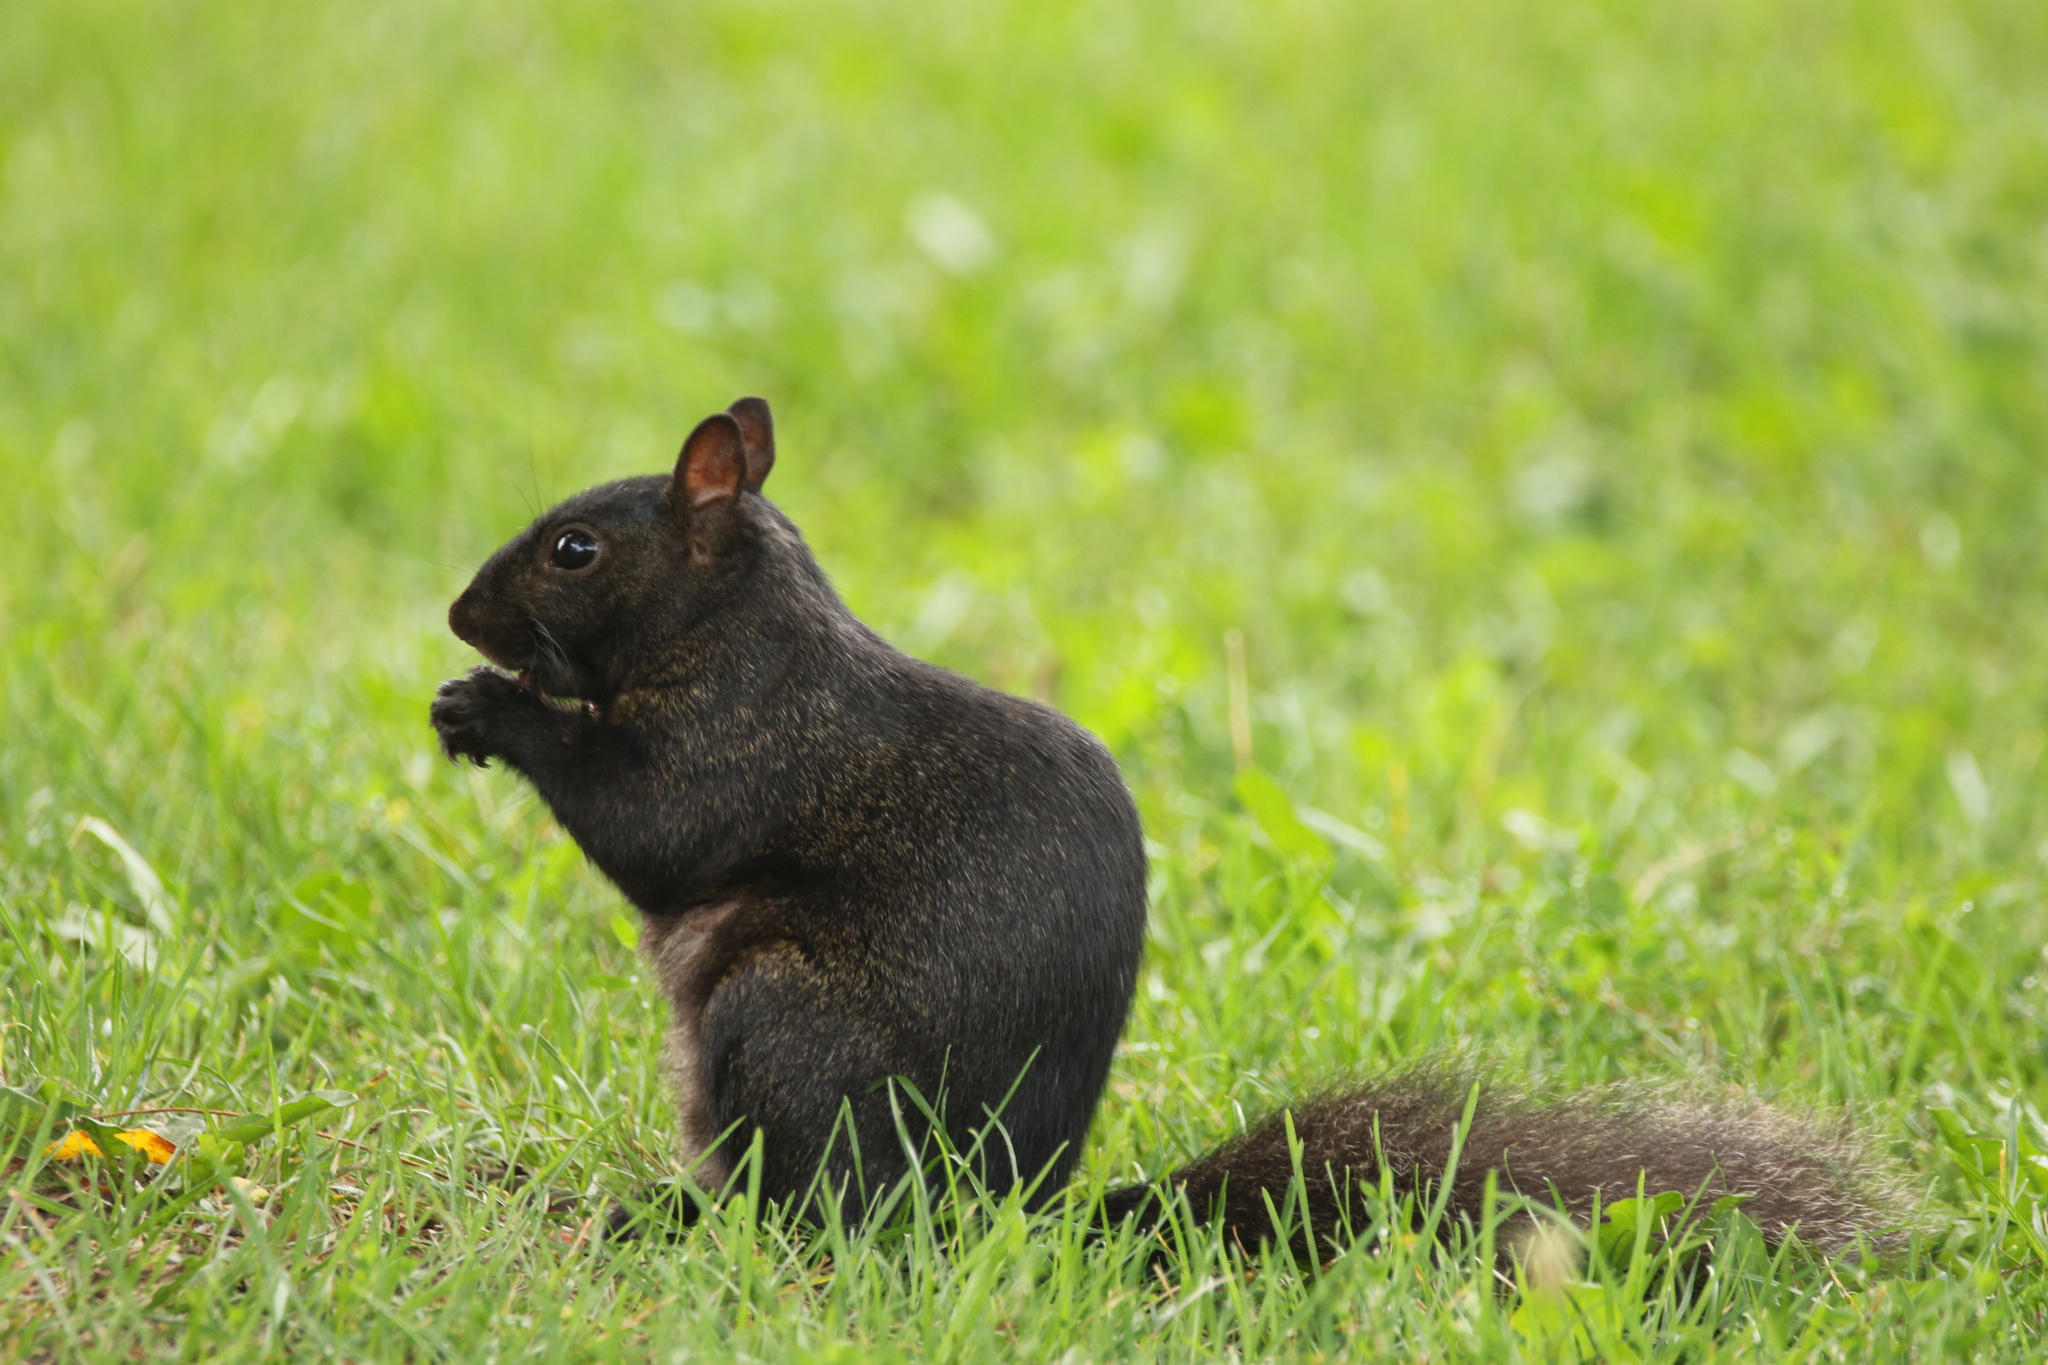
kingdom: Animalia
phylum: Chordata
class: Mammalia
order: Rodentia
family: Sciuridae
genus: Sciurus
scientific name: Sciurus carolinensis
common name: Eastern gray squirrel
